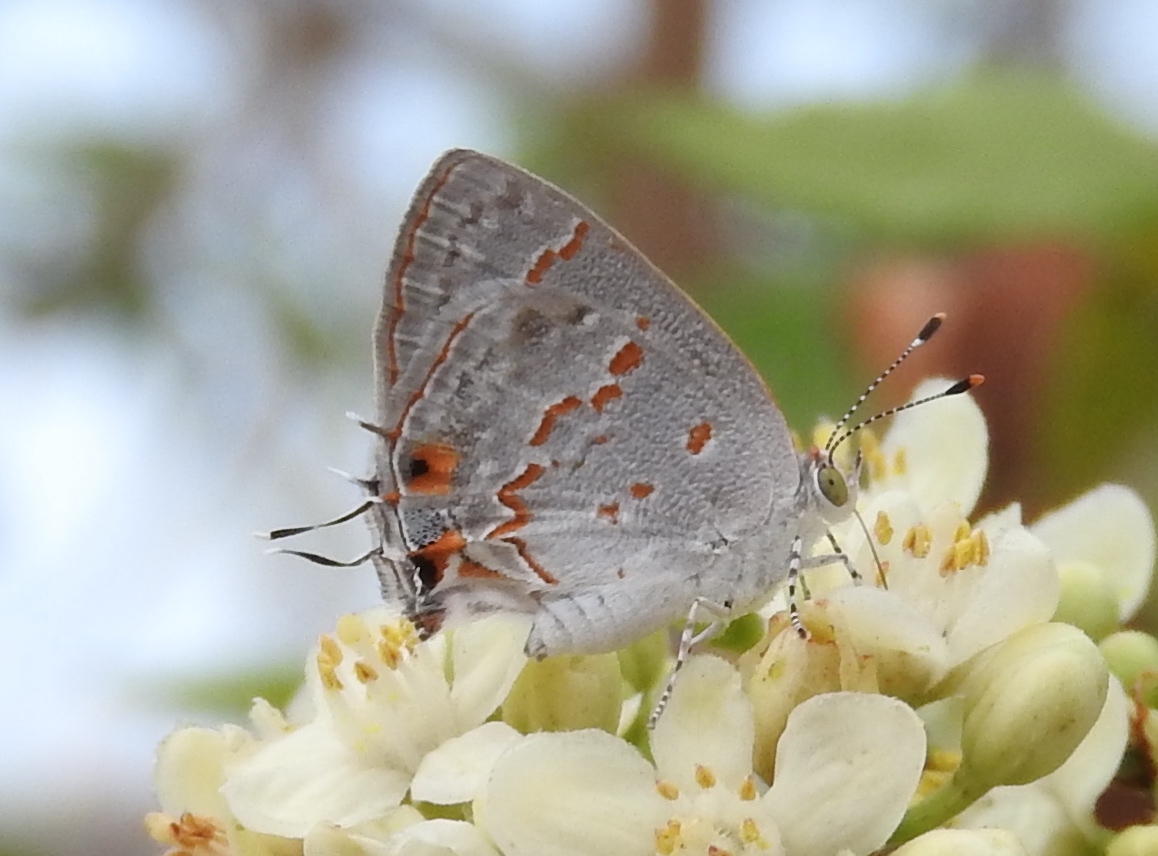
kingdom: Animalia
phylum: Arthropoda
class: Insecta
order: Lepidoptera
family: Lycaenidae
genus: Ministrymon
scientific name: Ministrymon clytie
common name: Clytie ministreak
